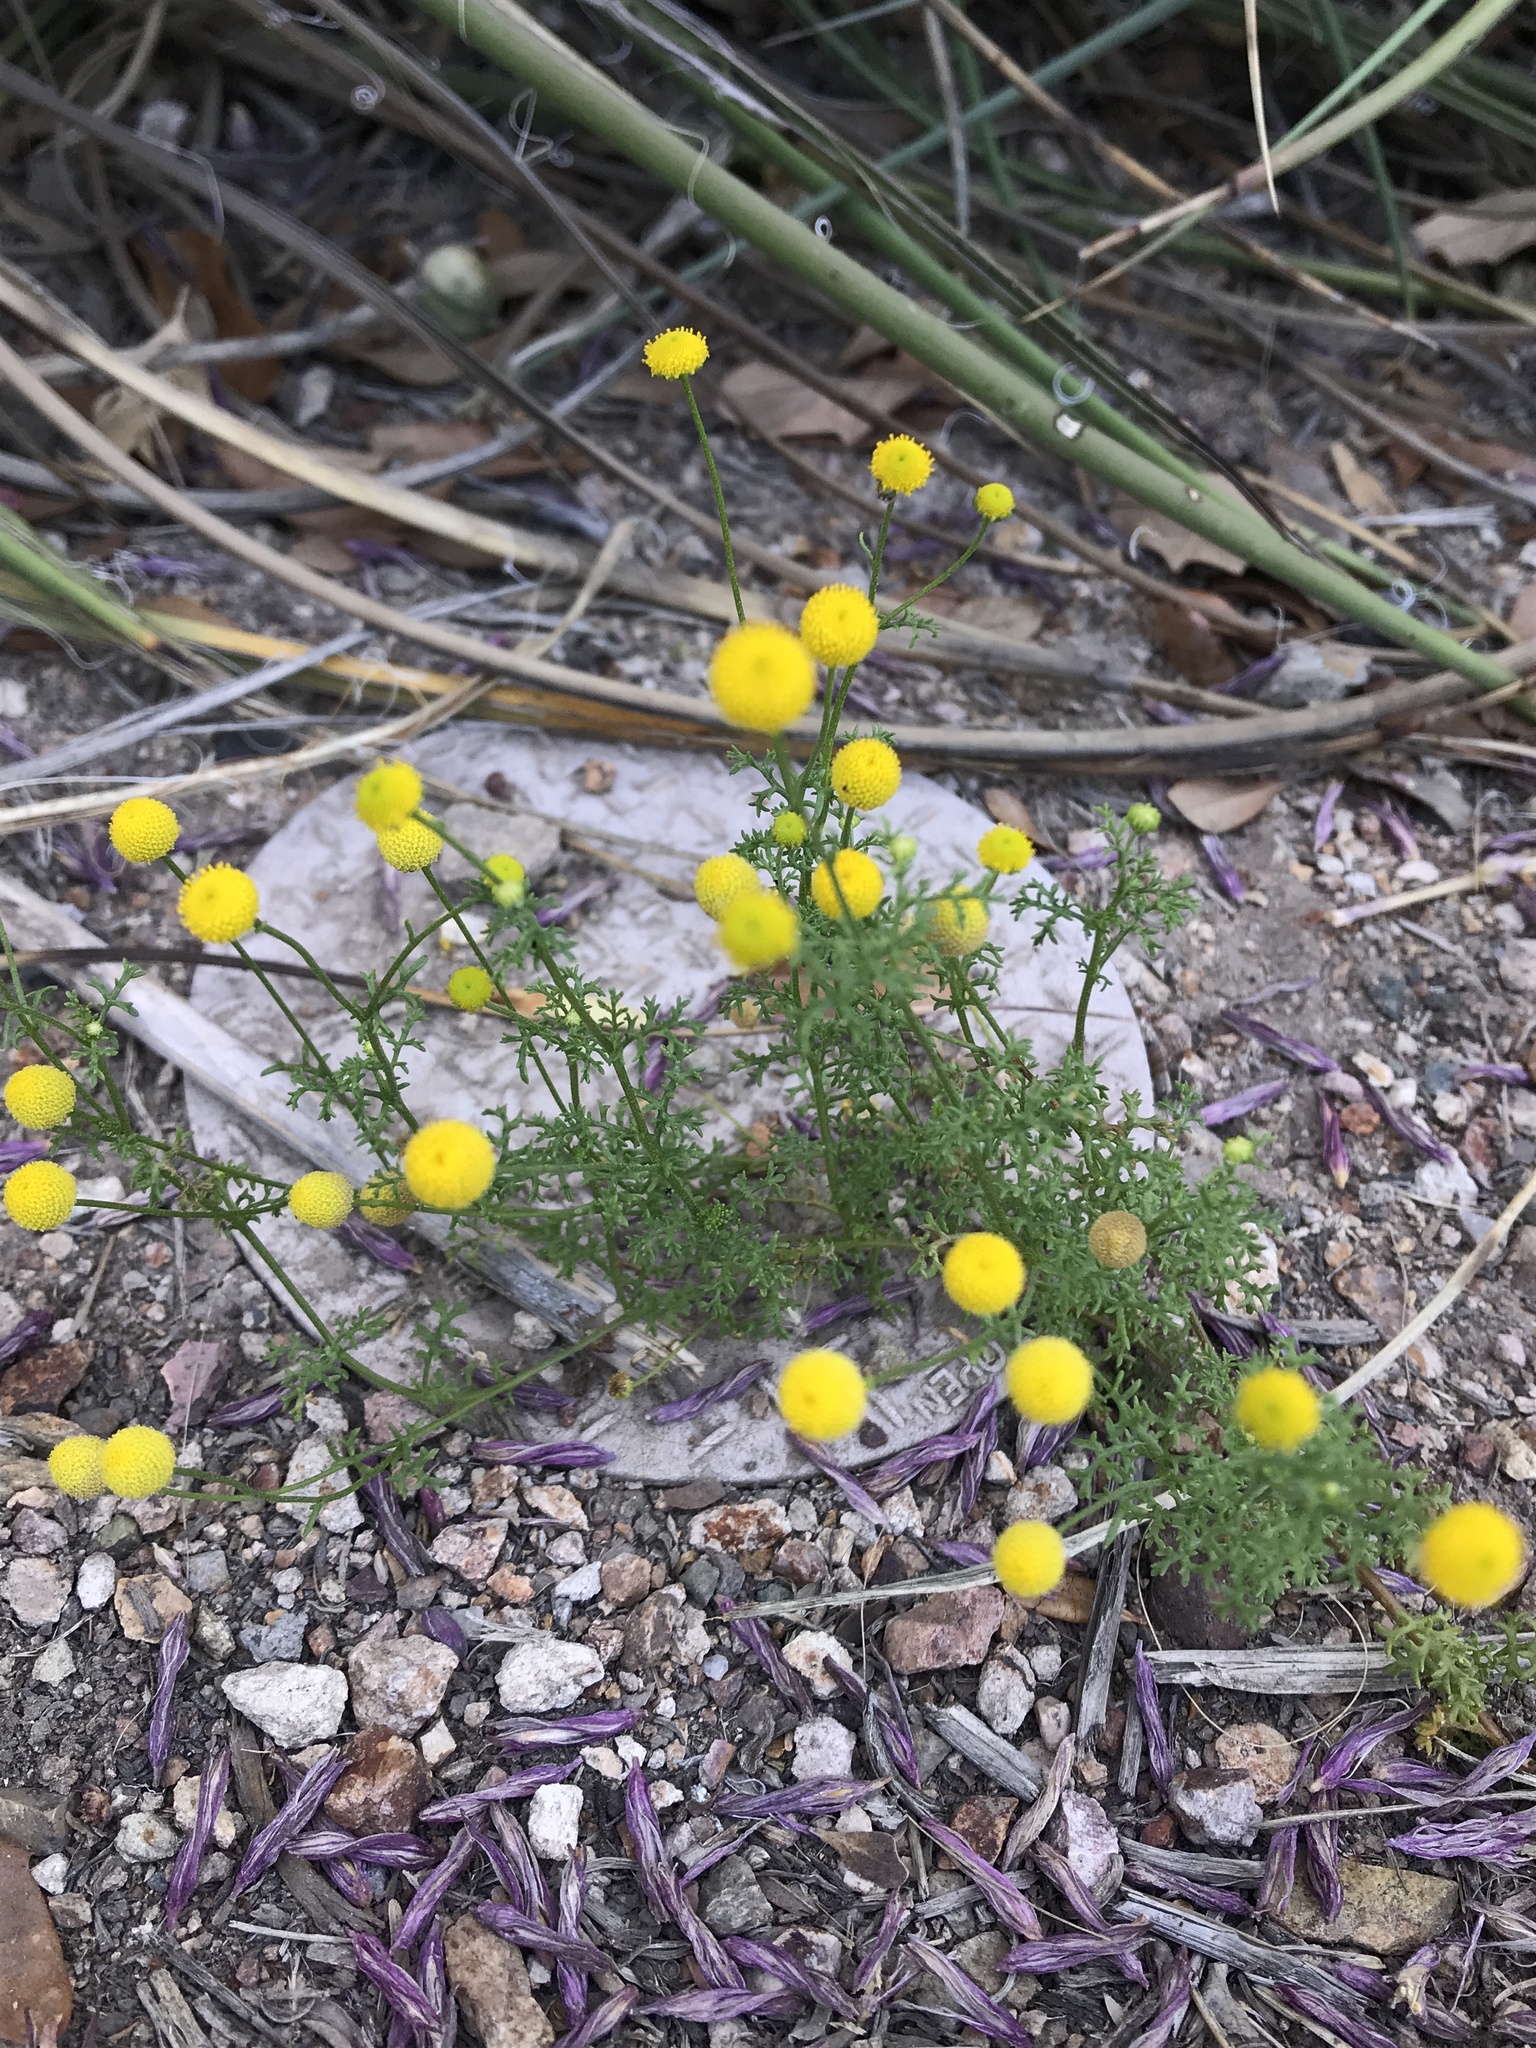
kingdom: Plantae
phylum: Tracheophyta
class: Magnoliopsida
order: Asterales
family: Asteraceae
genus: Oncosiphon
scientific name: Oncosiphon pilulifer
